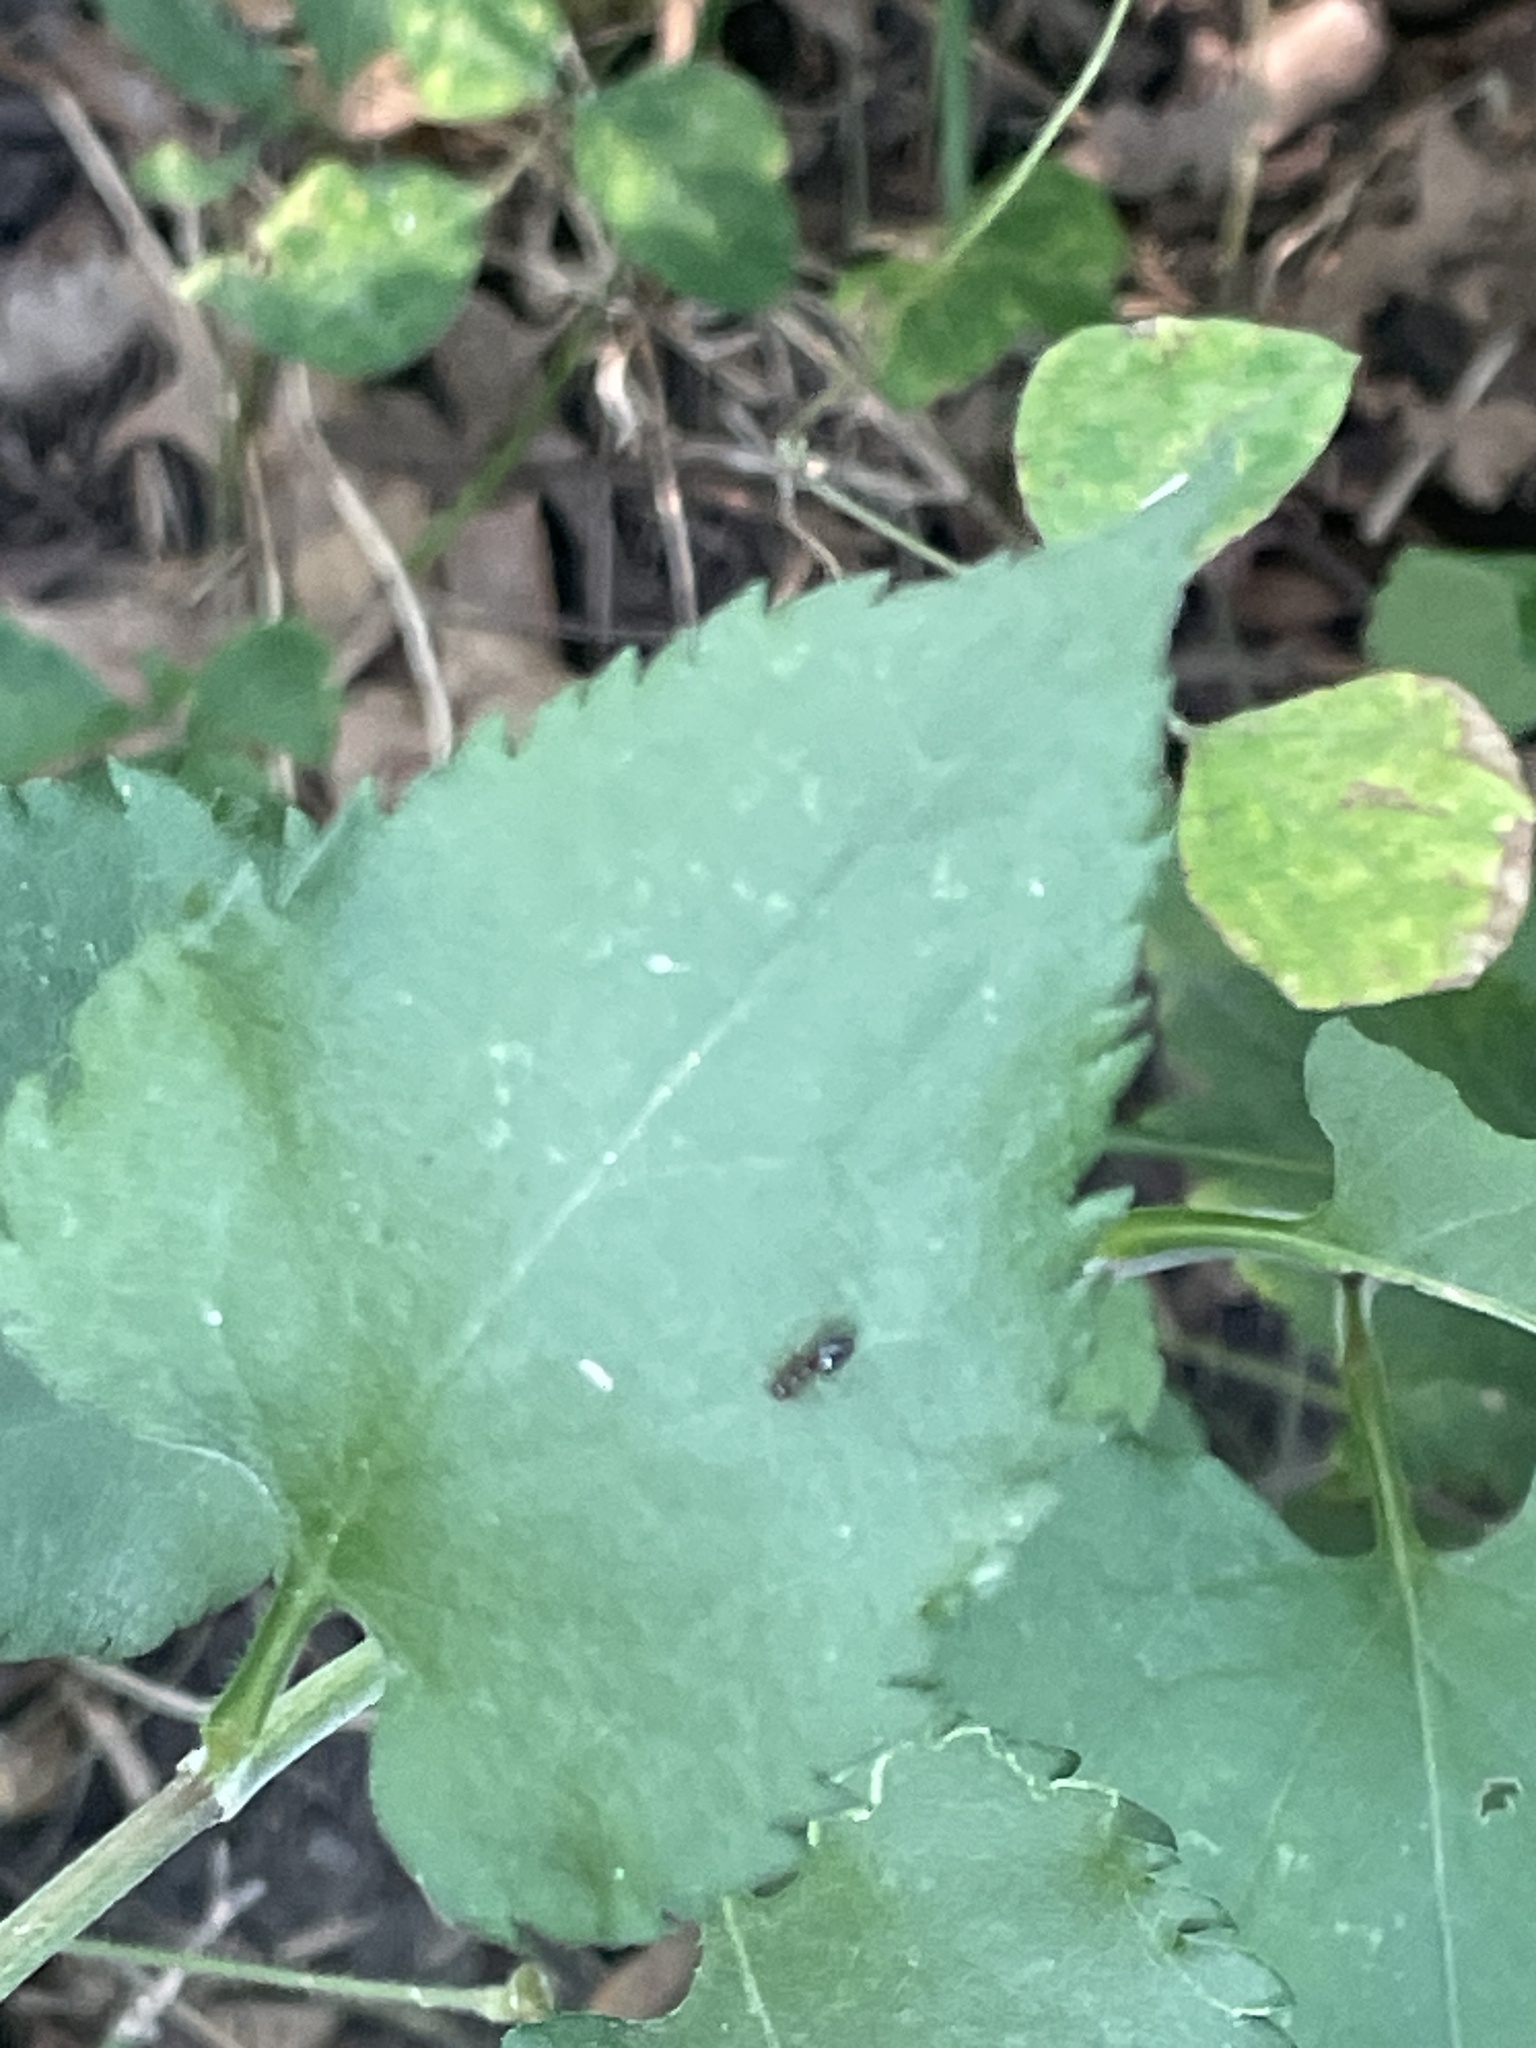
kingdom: Plantae
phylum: Tracheophyta
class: Magnoliopsida
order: Asterales
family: Asteraceae
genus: Symphyotrichum
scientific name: Symphyotrichum drummondii
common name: Drummond's aster
